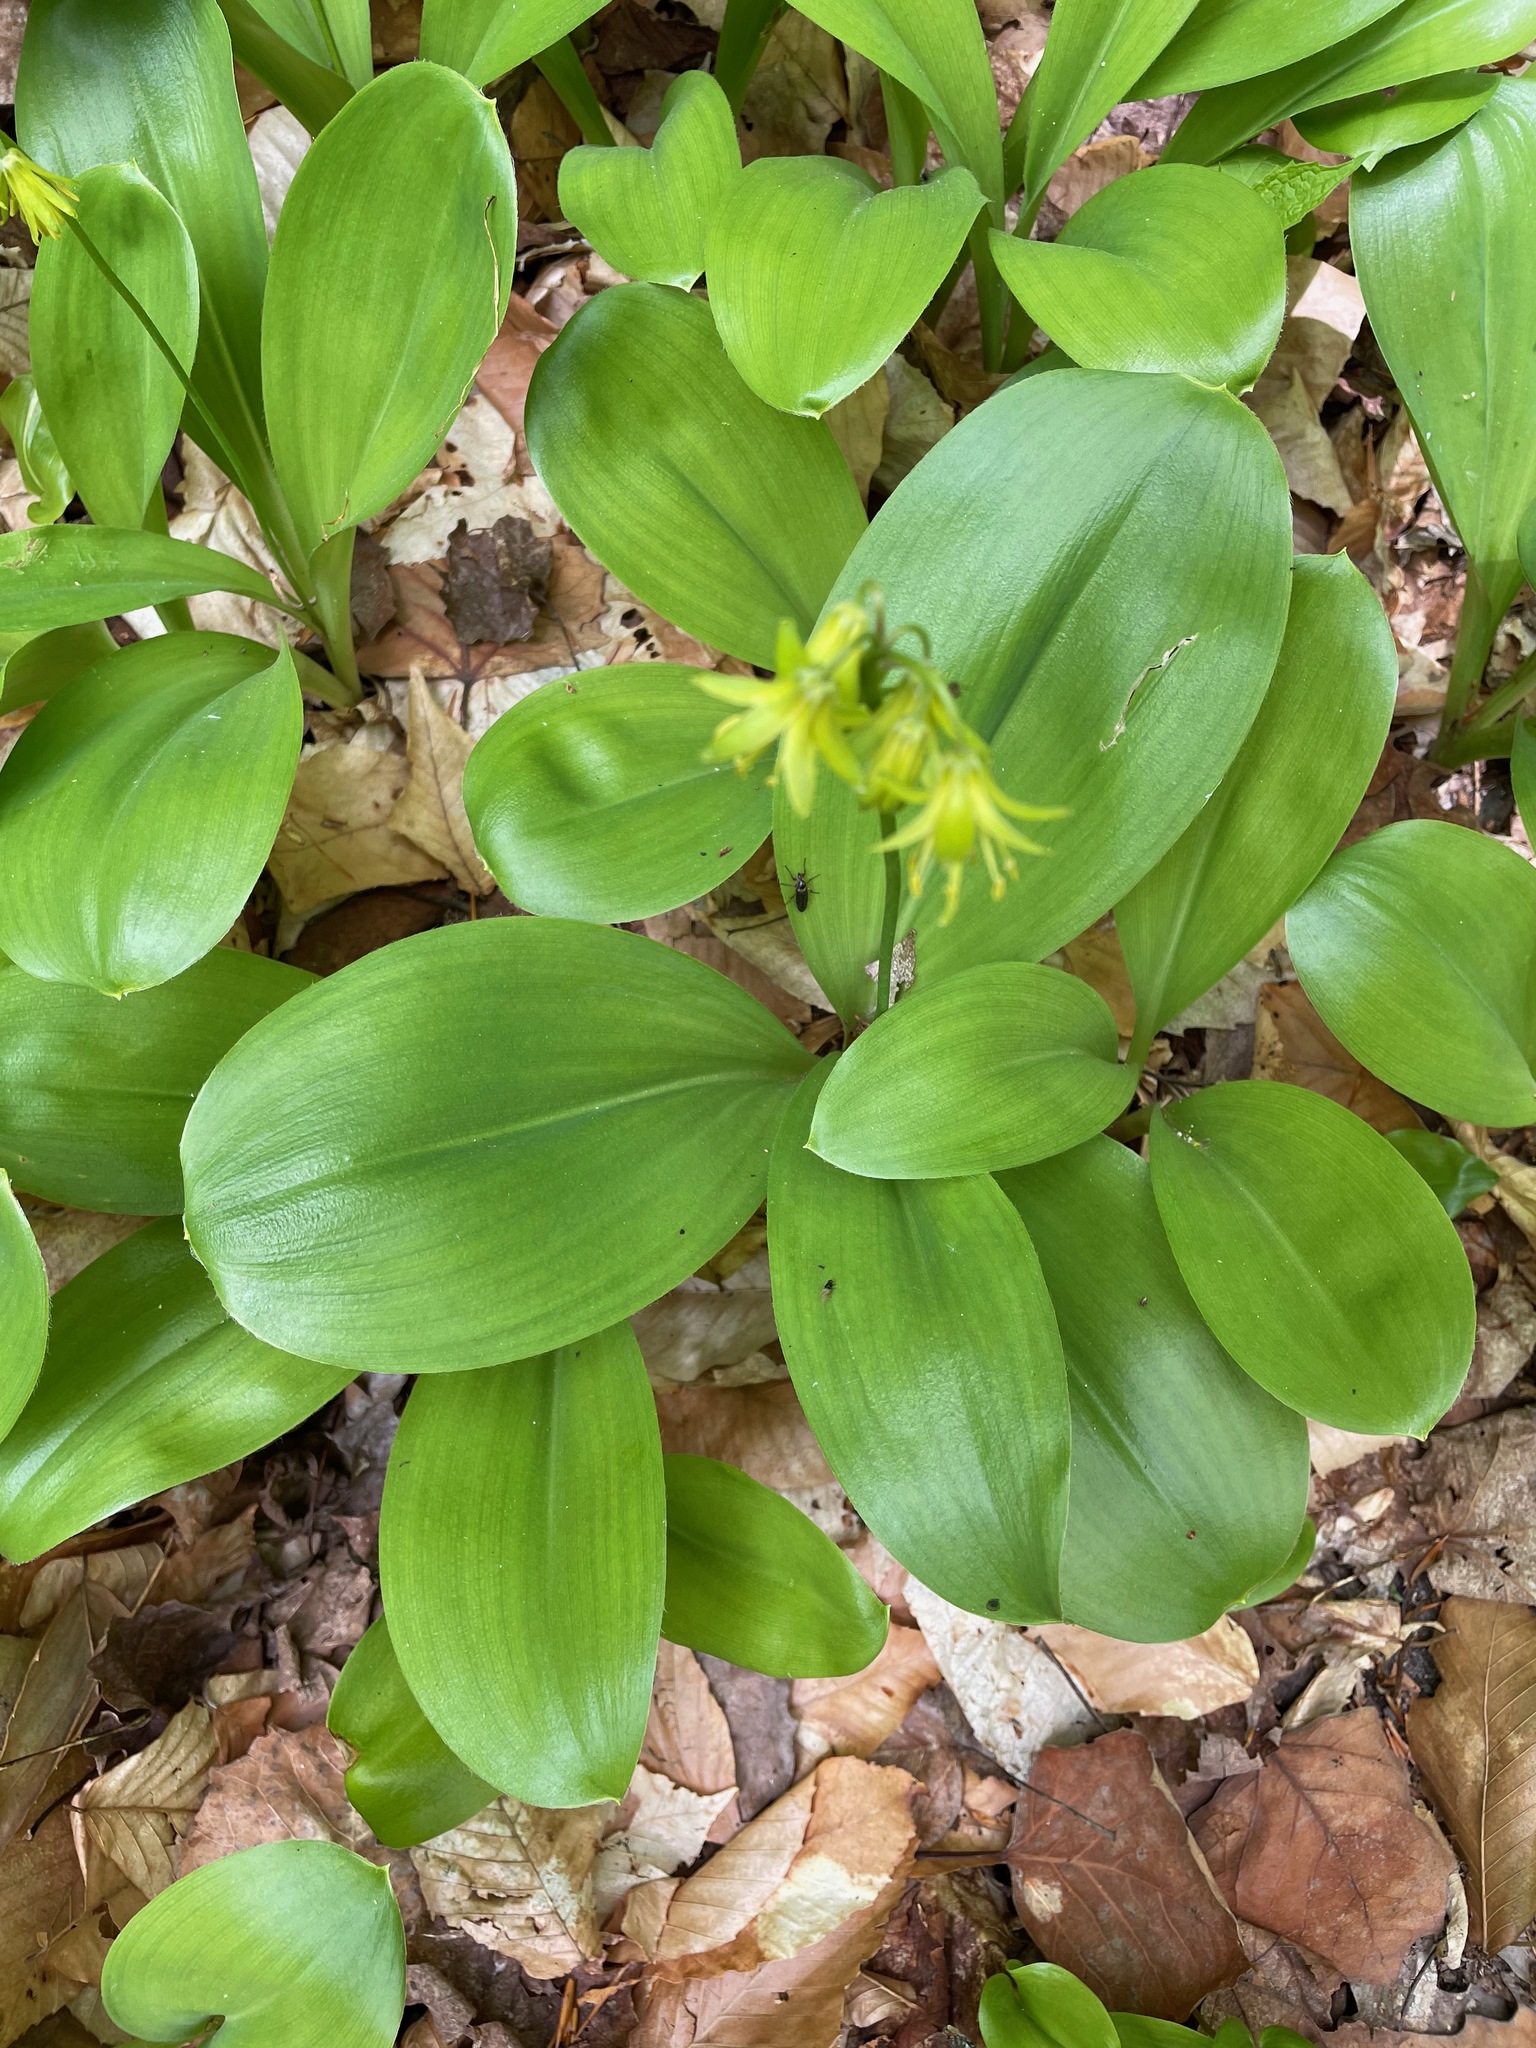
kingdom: Plantae
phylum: Tracheophyta
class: Liliopsida
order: Liliales
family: Liliaceae
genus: Clintonia
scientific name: Clintonia borealis
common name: Yellow clintonia
